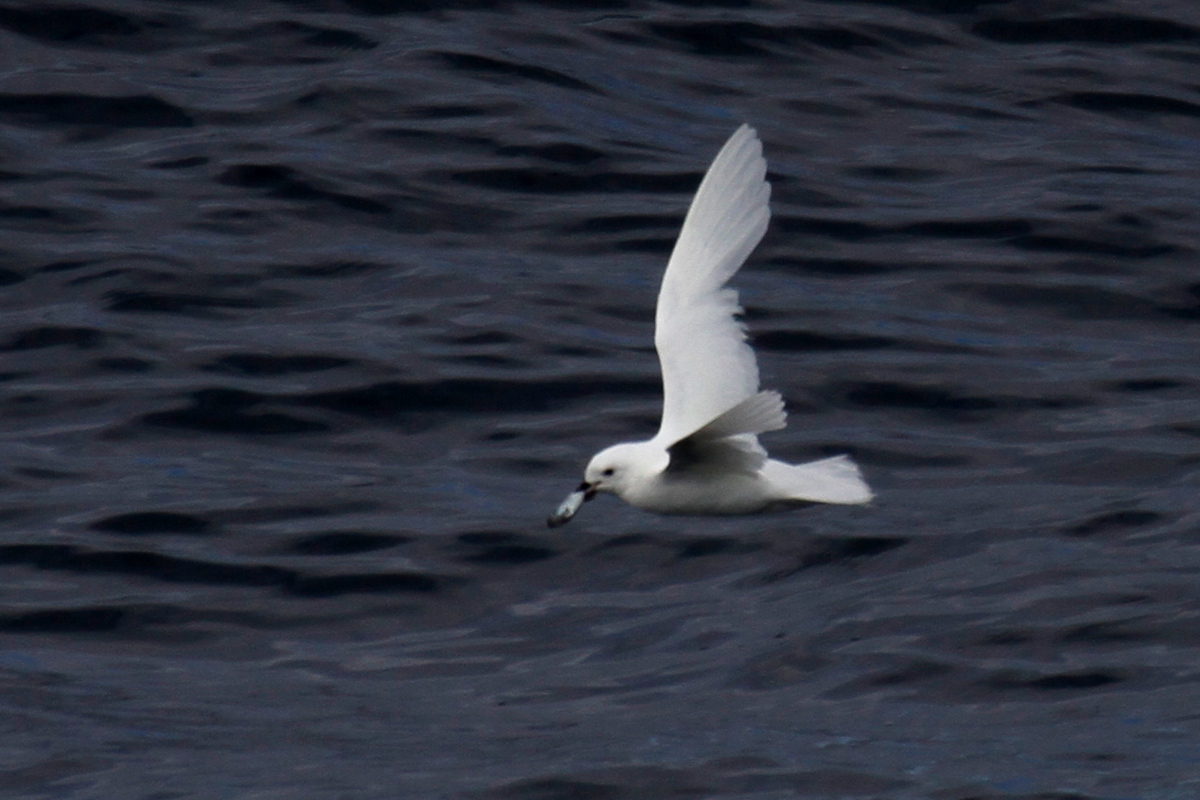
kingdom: Animalia
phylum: Chordata
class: Aves
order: Procellariiformes
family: Procellariidae
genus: Pagodroma
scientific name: Pagodroma nivea
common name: Snow petrel
